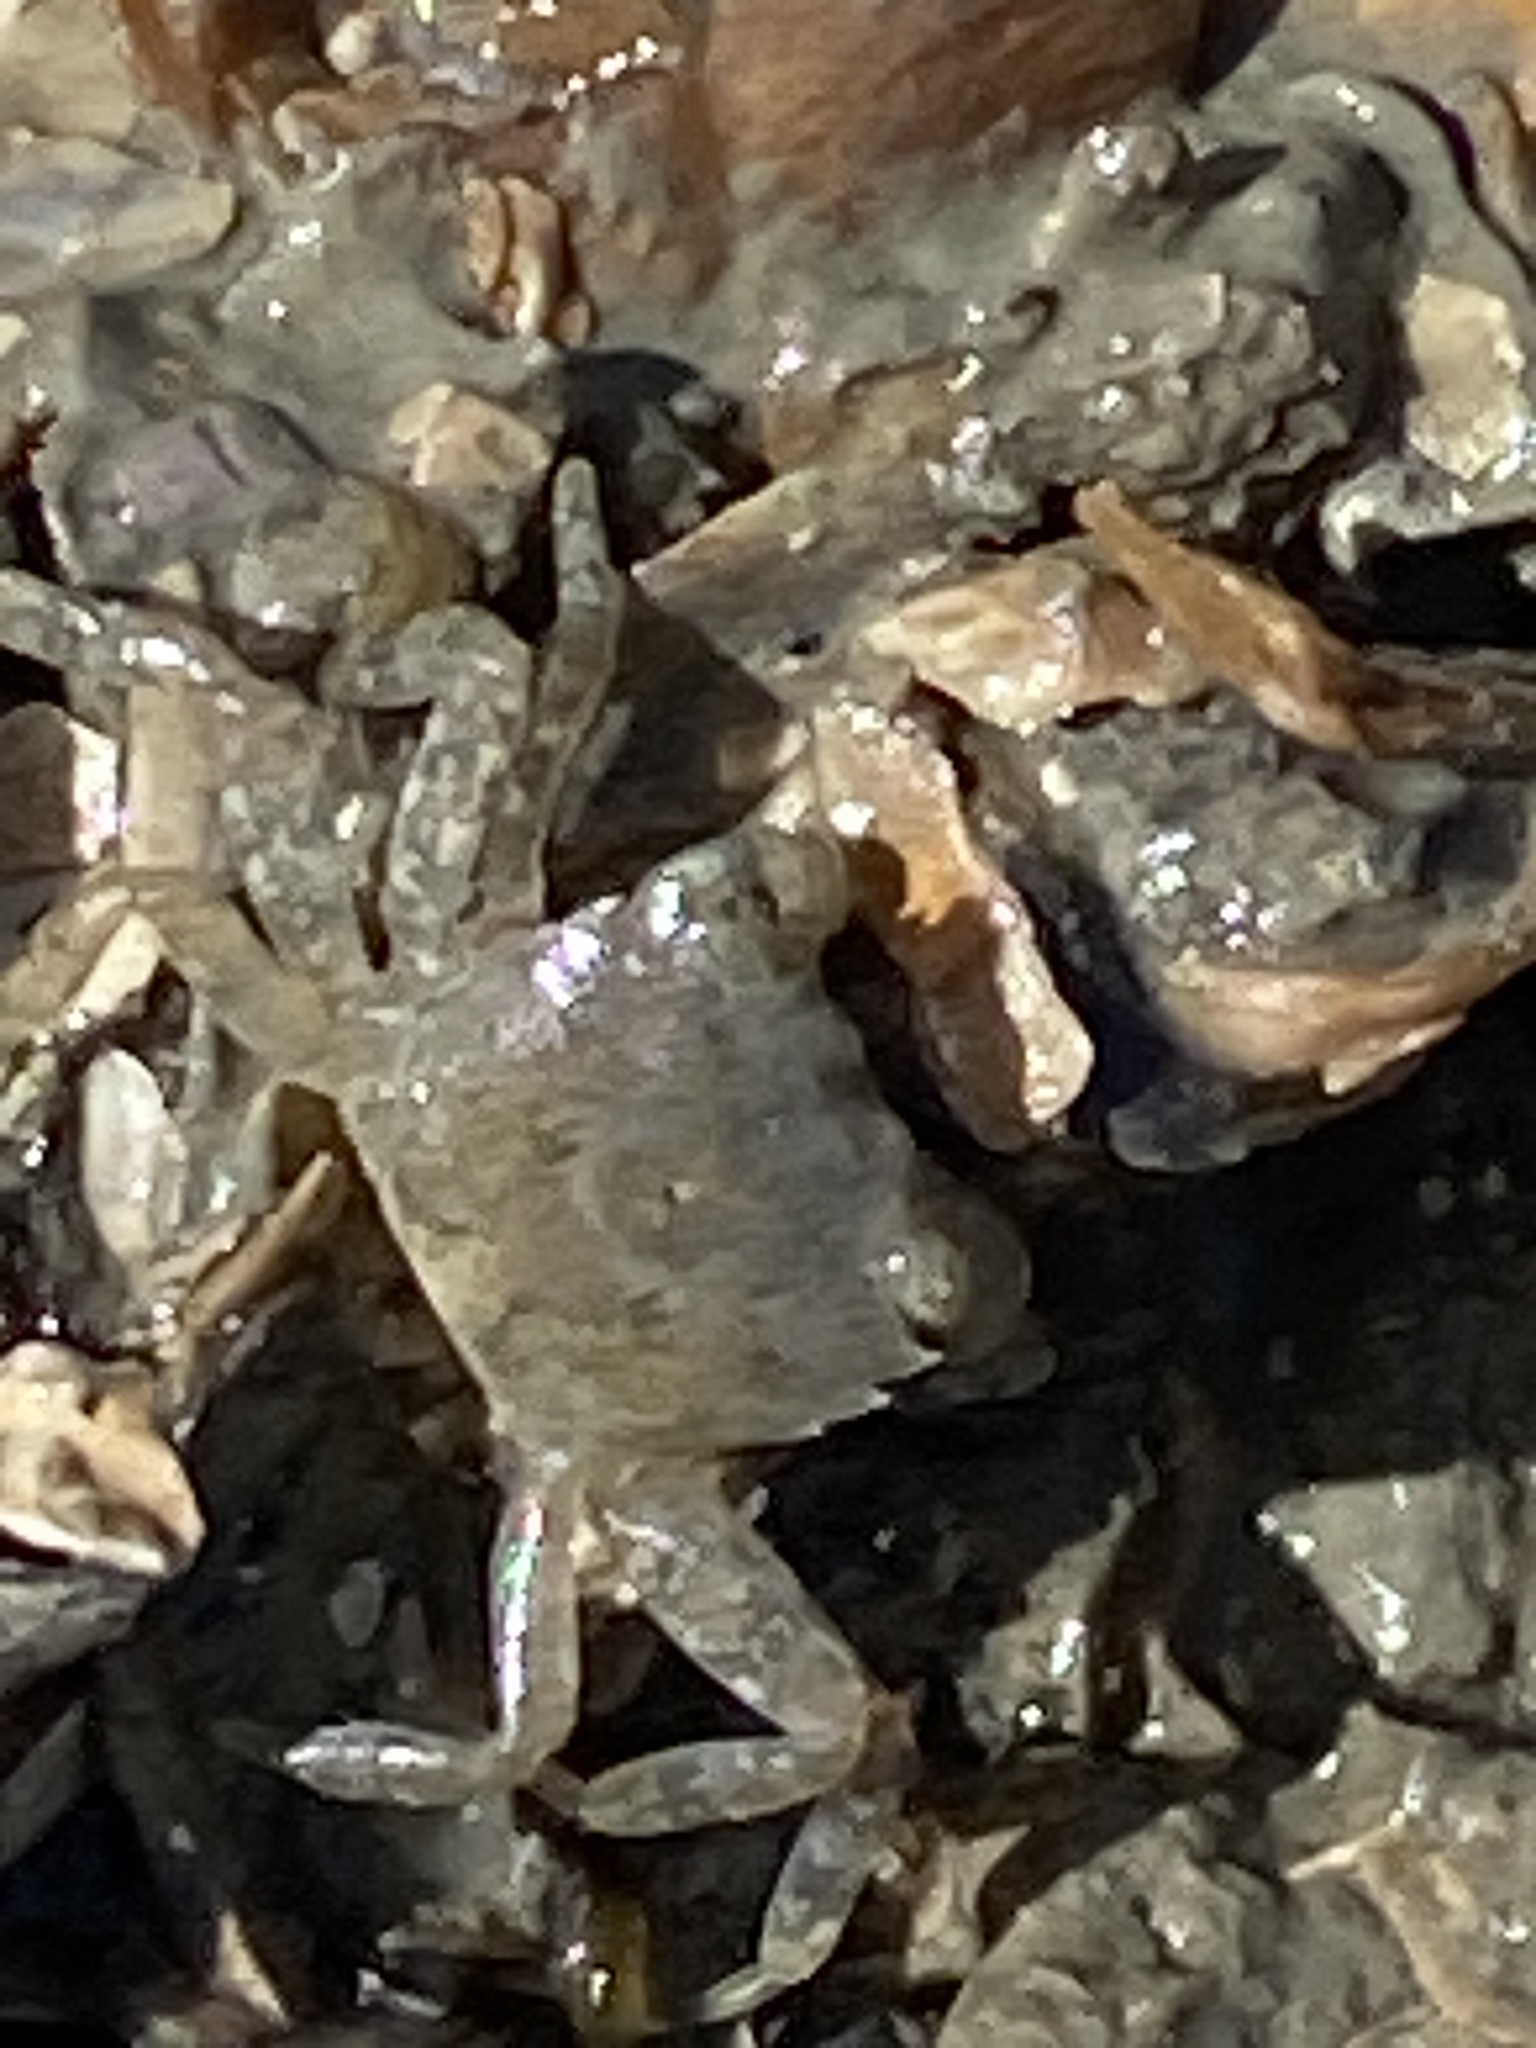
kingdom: Animalia
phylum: Arthropoda
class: Malacostraca
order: Decapoda
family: Varunidae
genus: Hemigrapsus
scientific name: Hemigrapsus oregonensis
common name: Yellow shore crab
